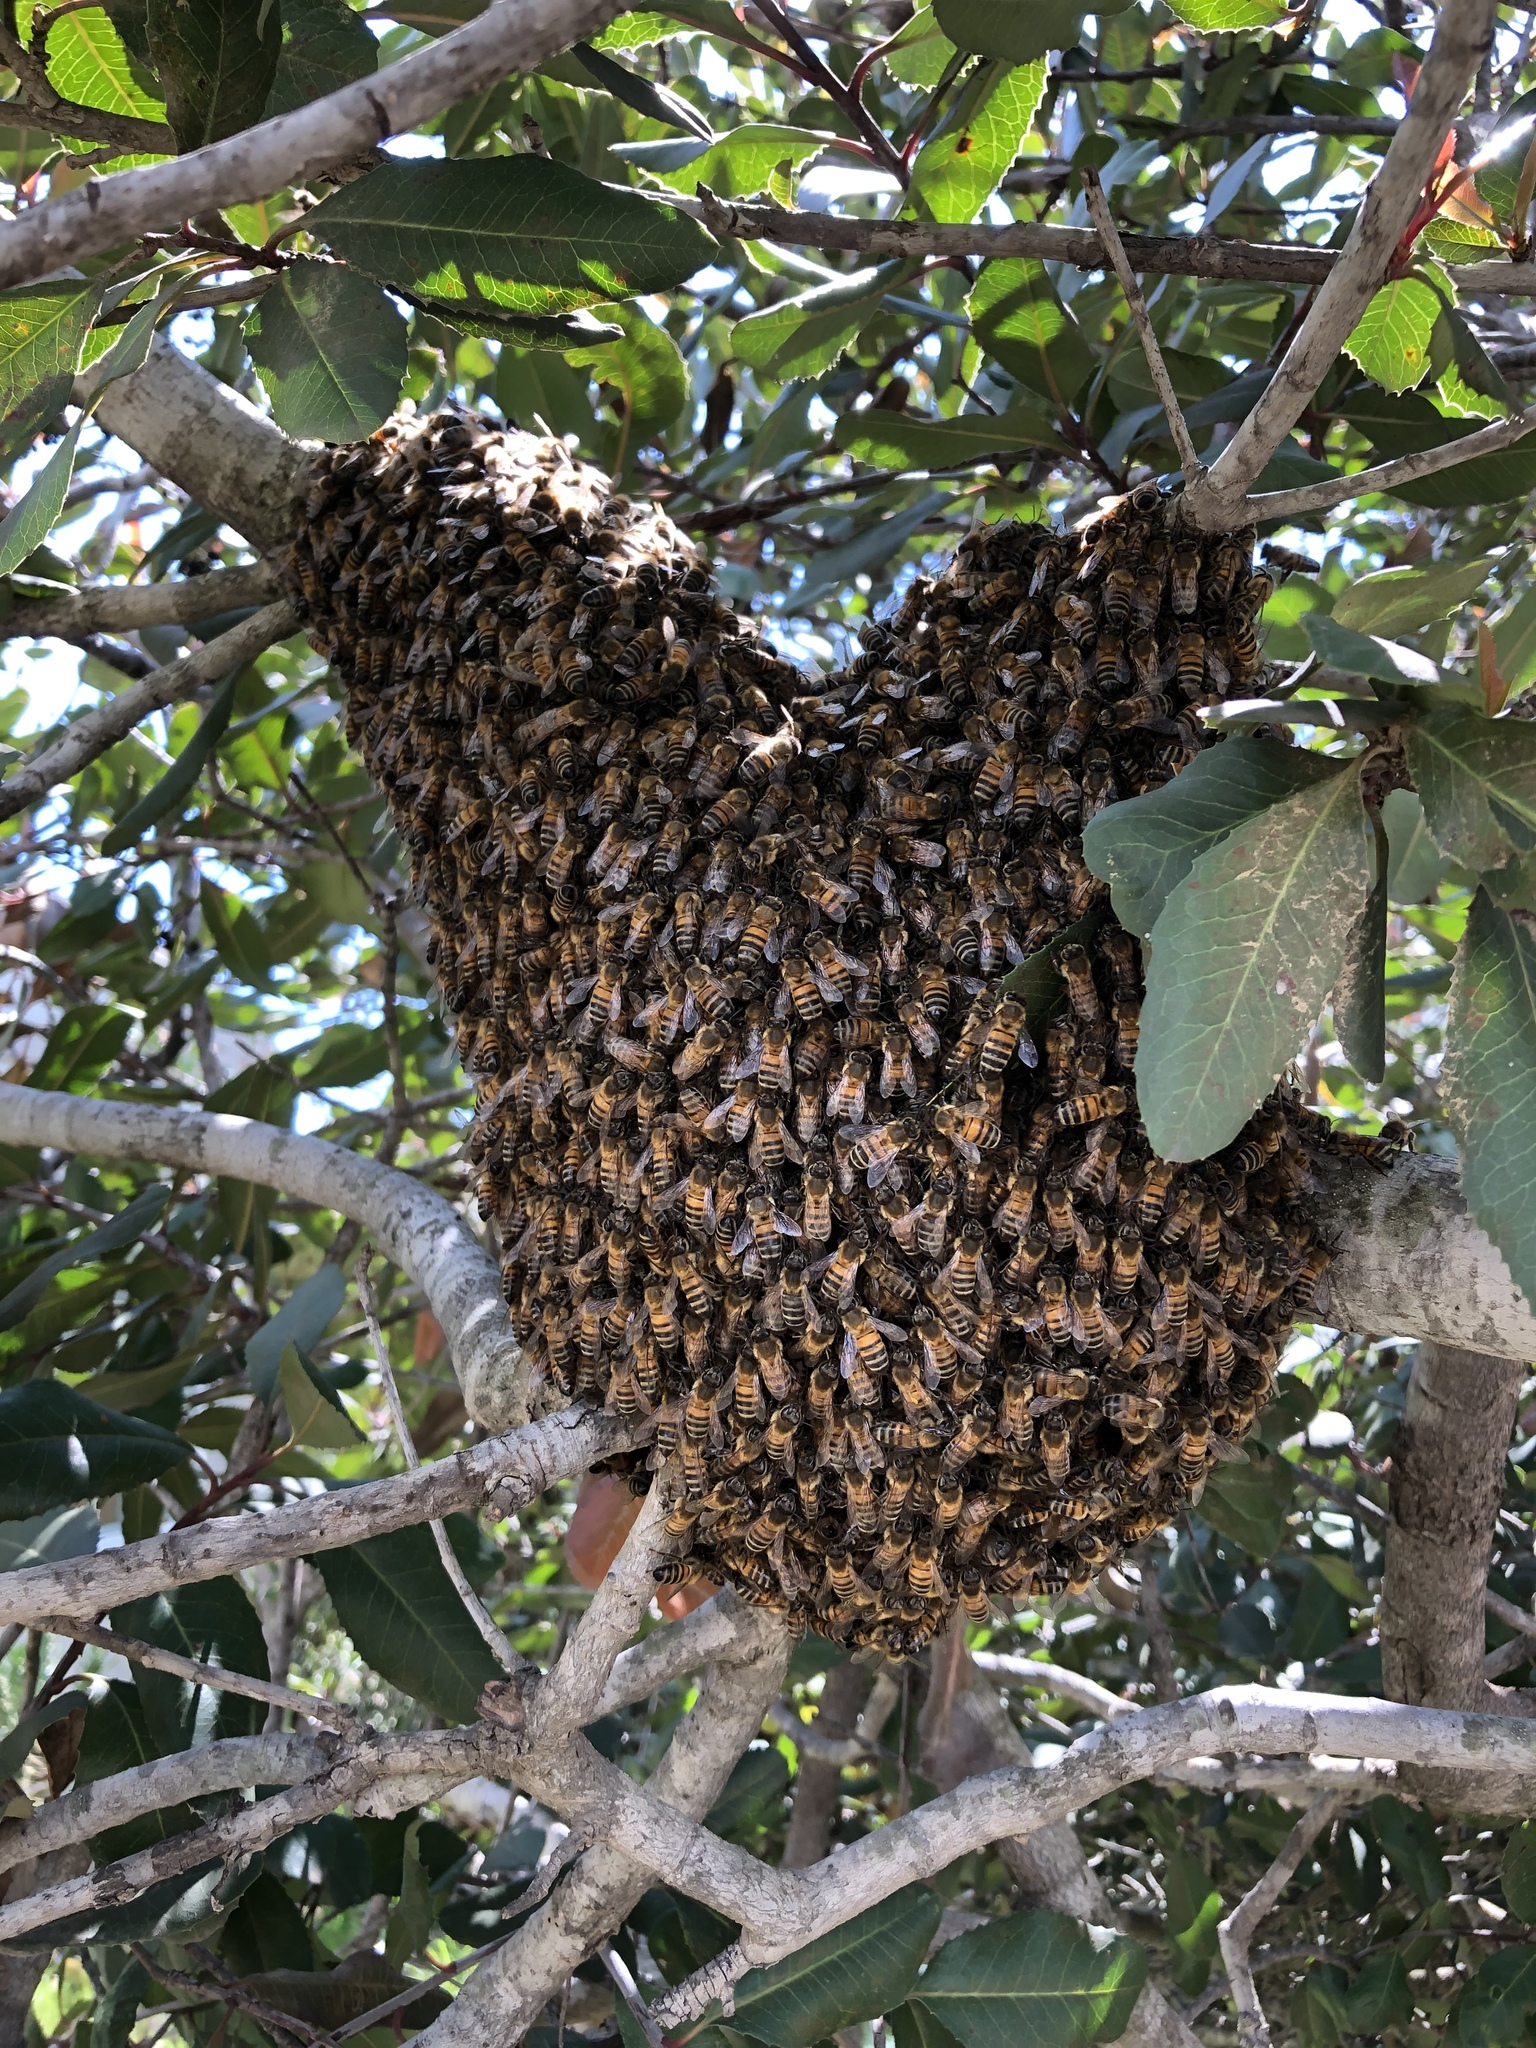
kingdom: Animalia
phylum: Arthropoda
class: Insecta
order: Hymenoptera
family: Apidae
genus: Apis
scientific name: Apis mellifera
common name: Honey bee
